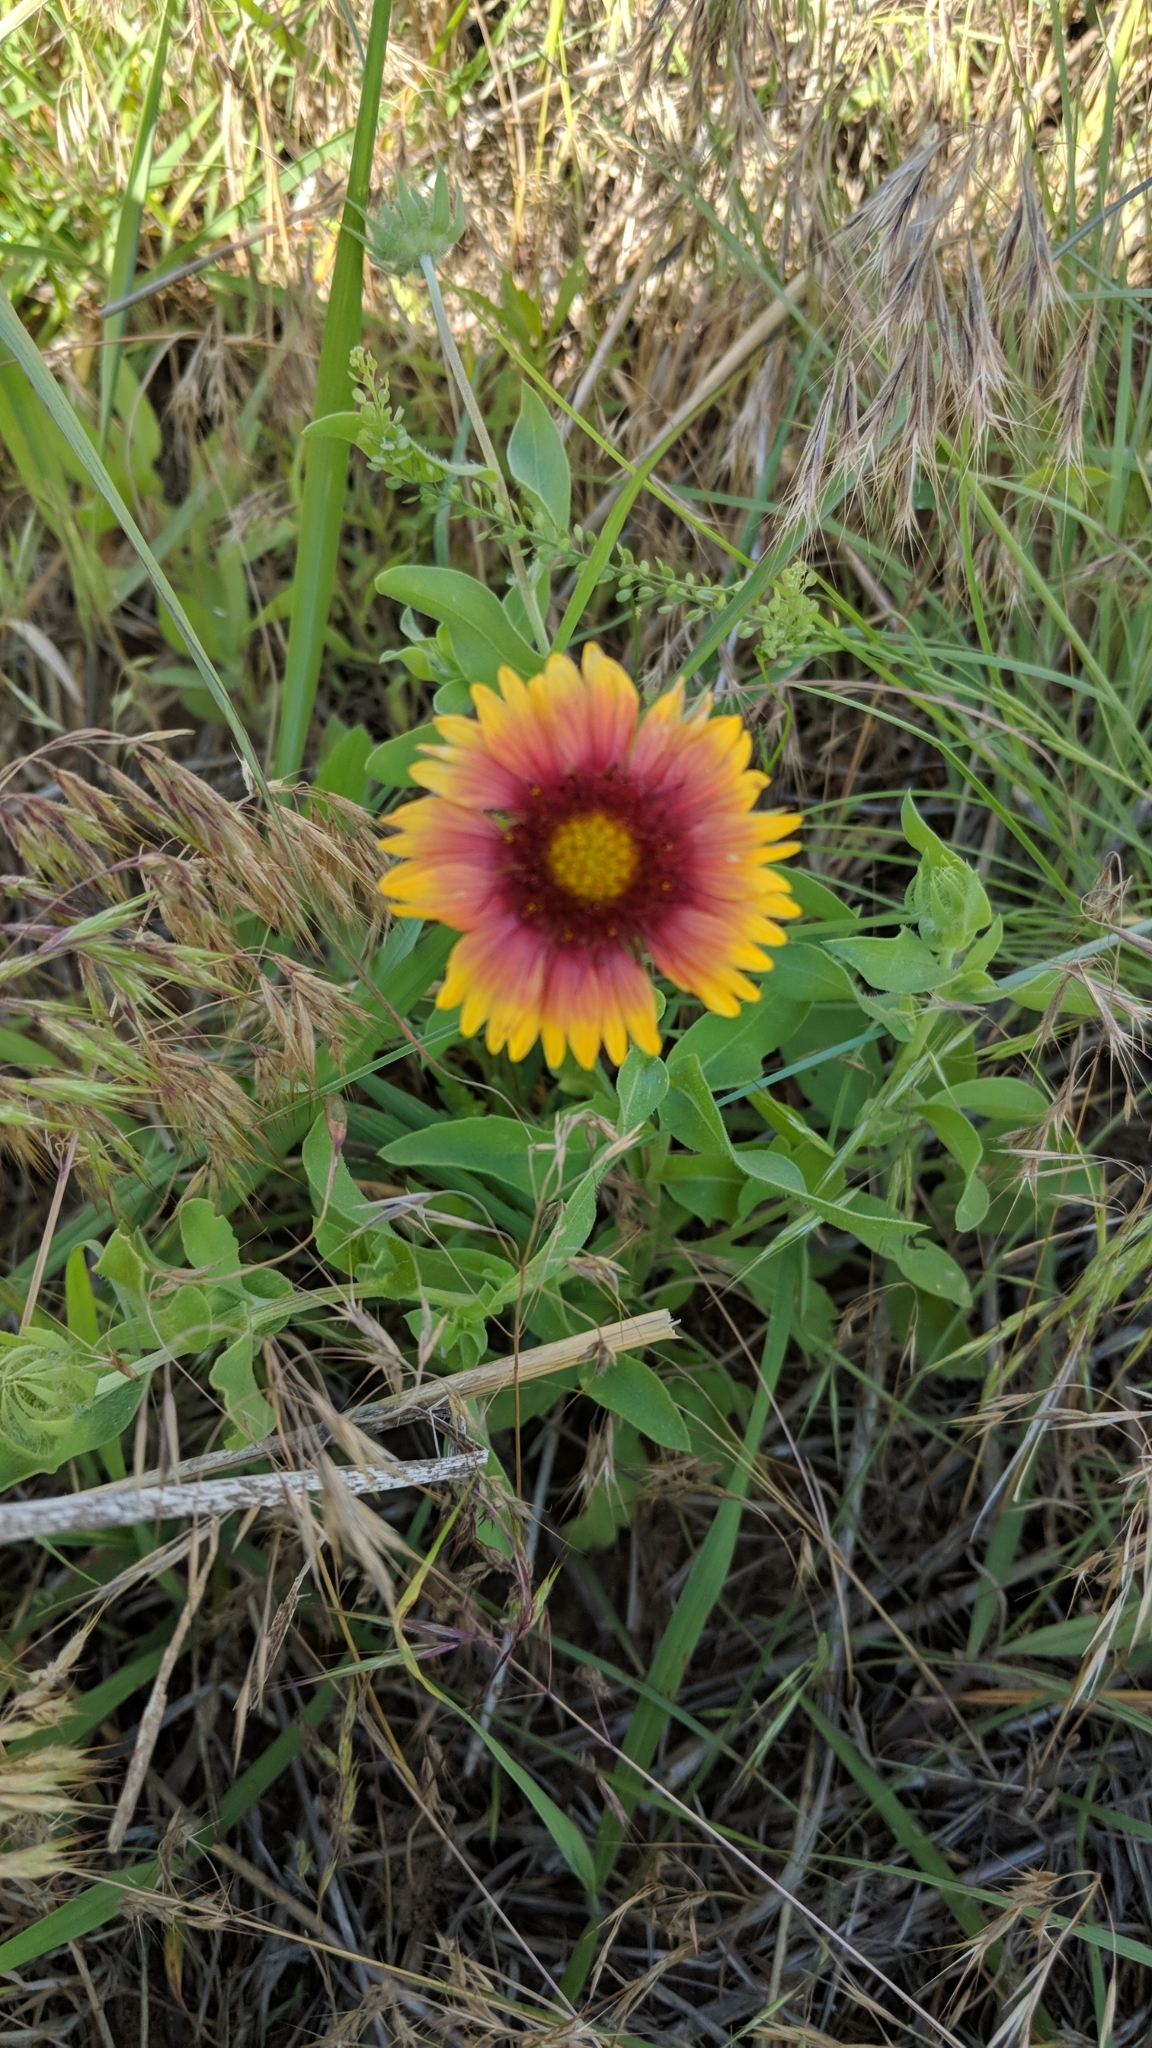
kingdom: Plantae
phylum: Tracheophyta
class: Magnoliopsida
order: Asterales
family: Asteraceae
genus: Gaillardia
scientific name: Gaillardia pulchella
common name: Firewheel
